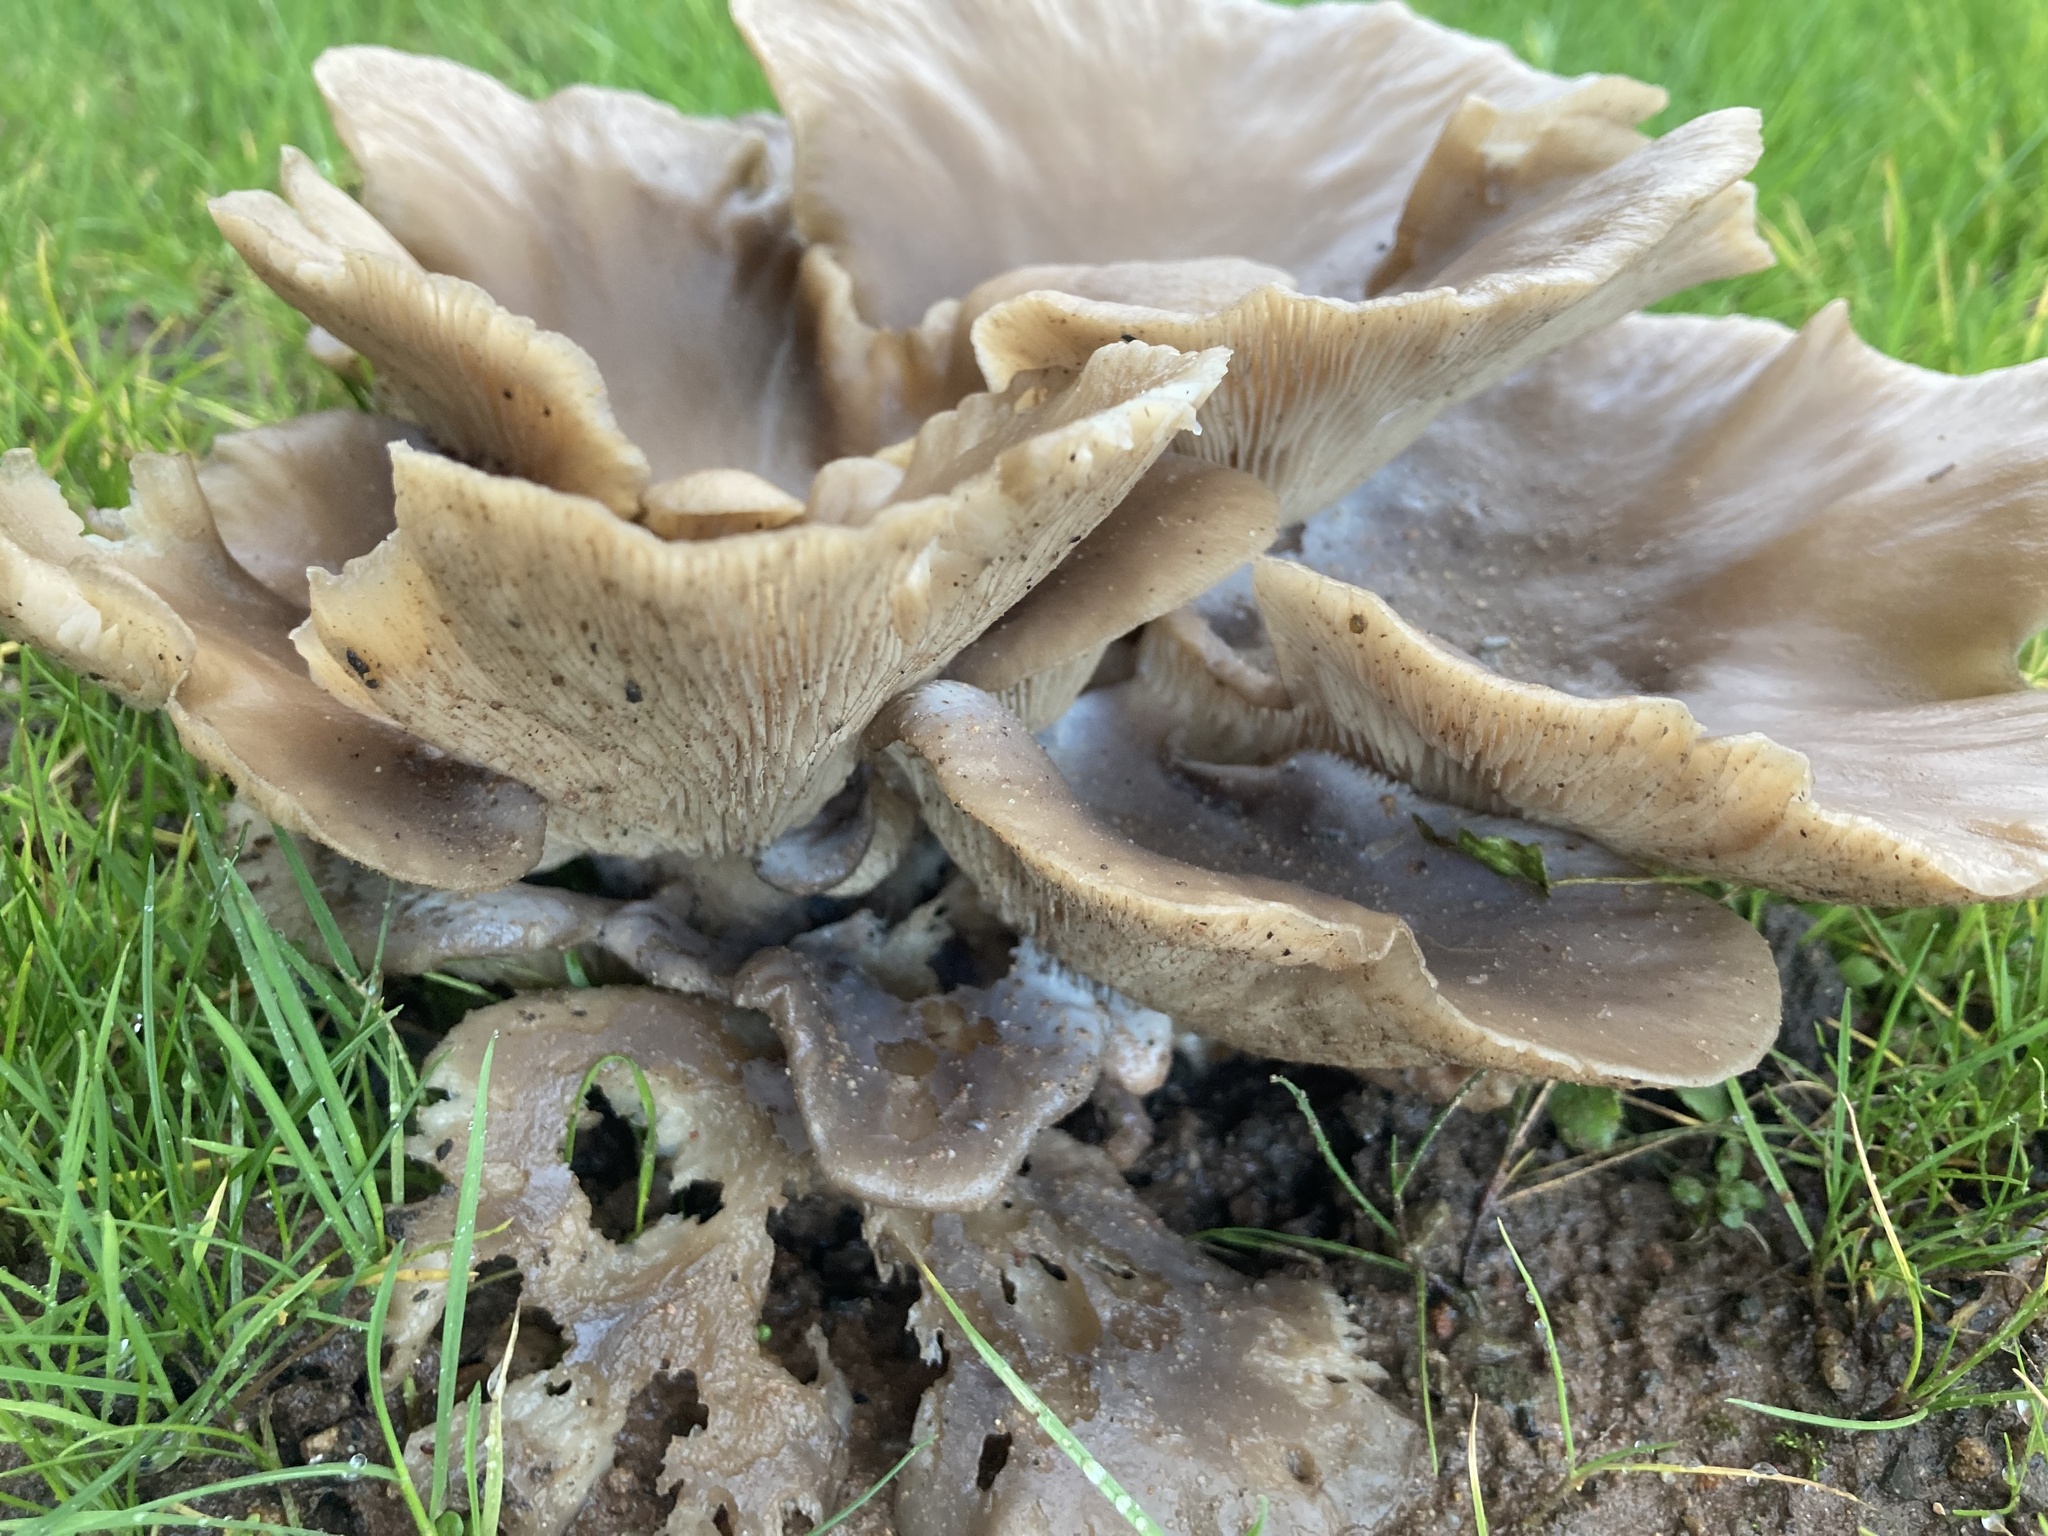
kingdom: Fungi
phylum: Basidiomycota
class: Agaricomycetes
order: Agaricales
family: Pleurotaceae
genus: Pleurotus
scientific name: Pleurotus ostreatus
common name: Oyster mushroom
